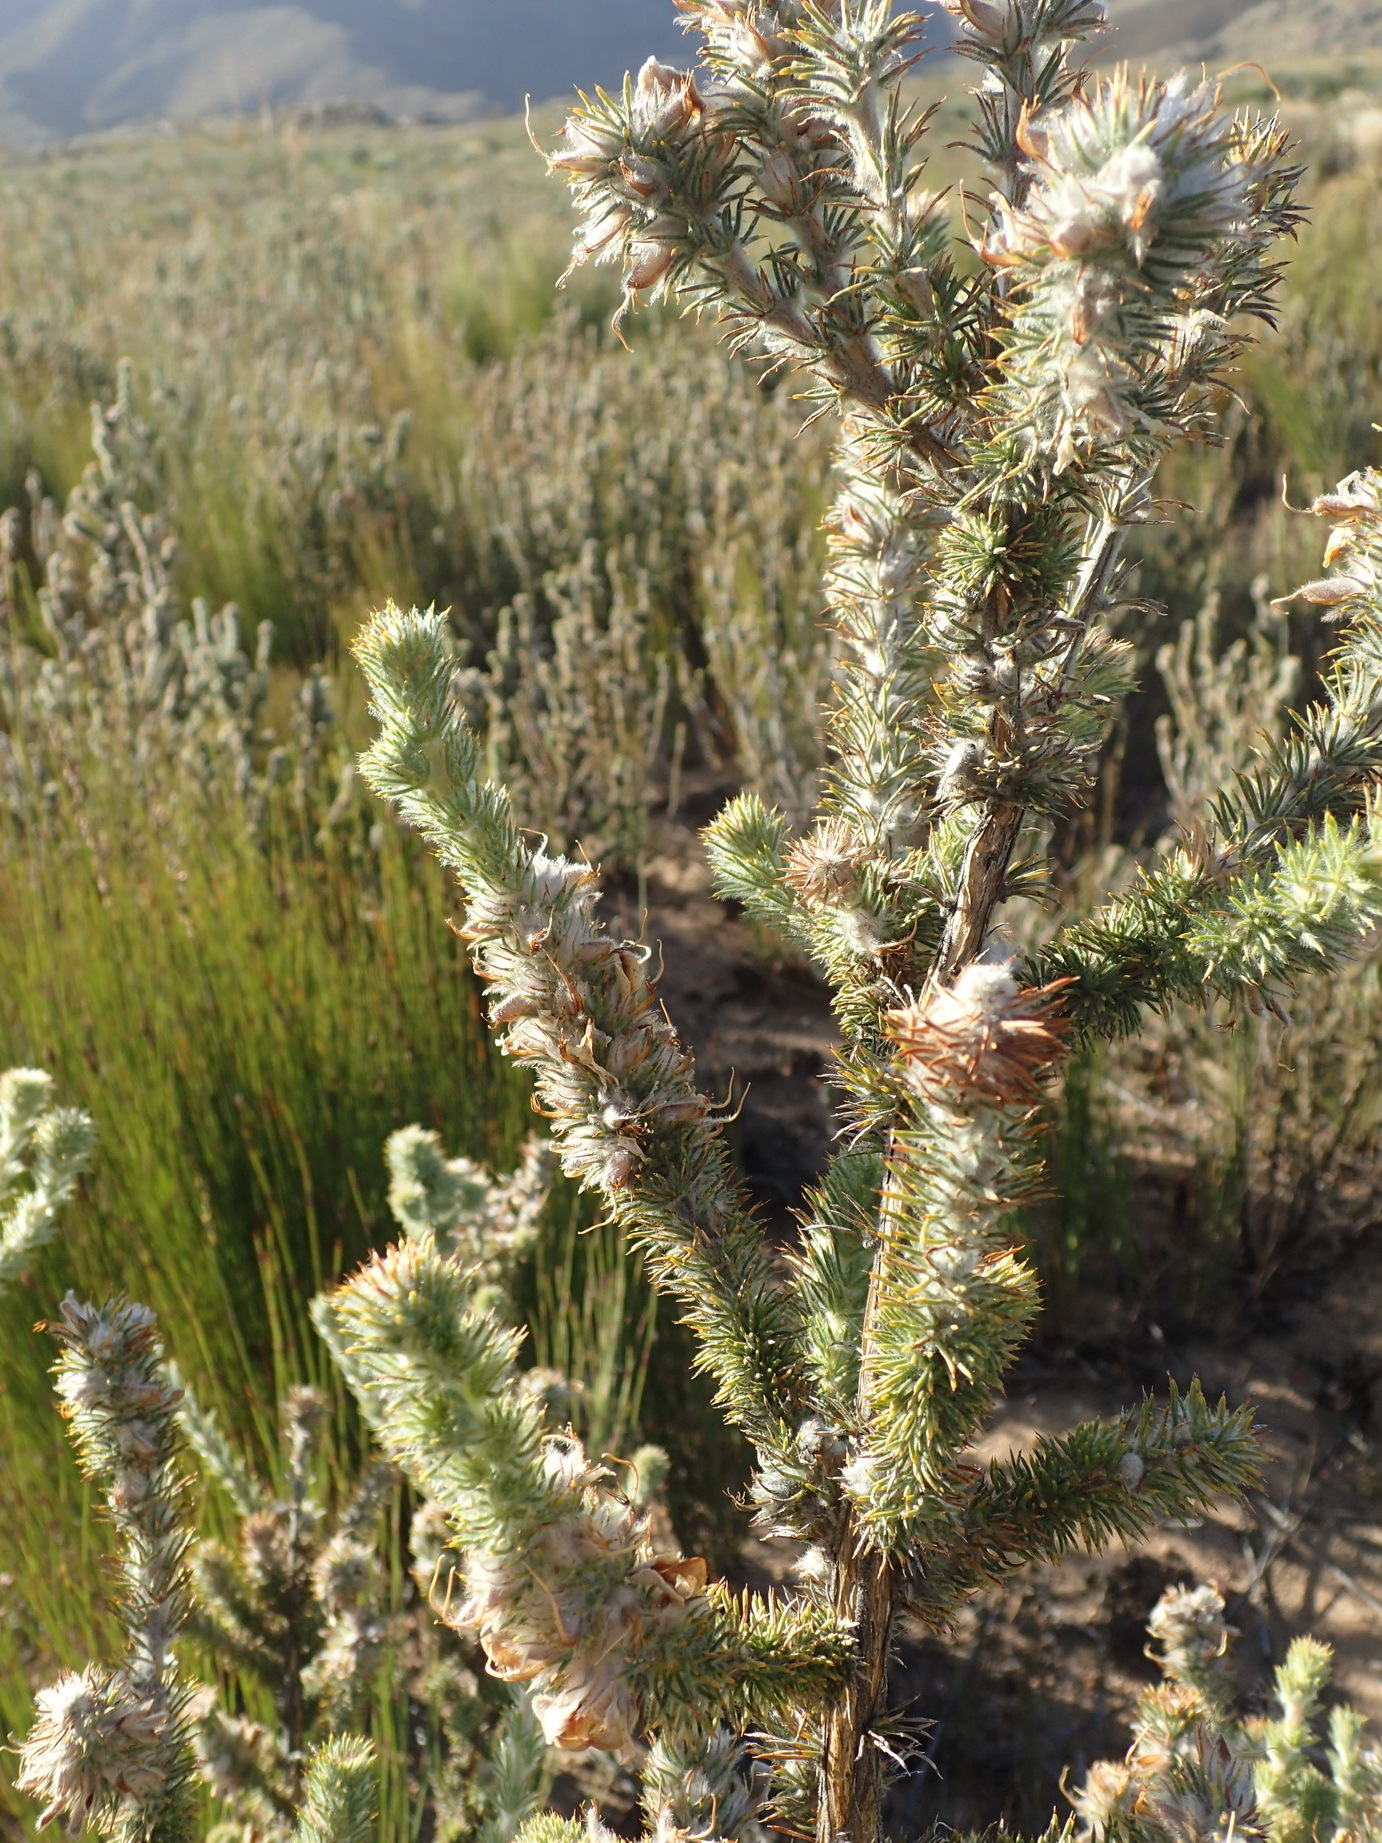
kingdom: Plantae
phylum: Tracheophyta
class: Magnoliopsida
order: Fabales
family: Fabaceae
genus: Aspalathus
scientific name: Aspalathus shawii
